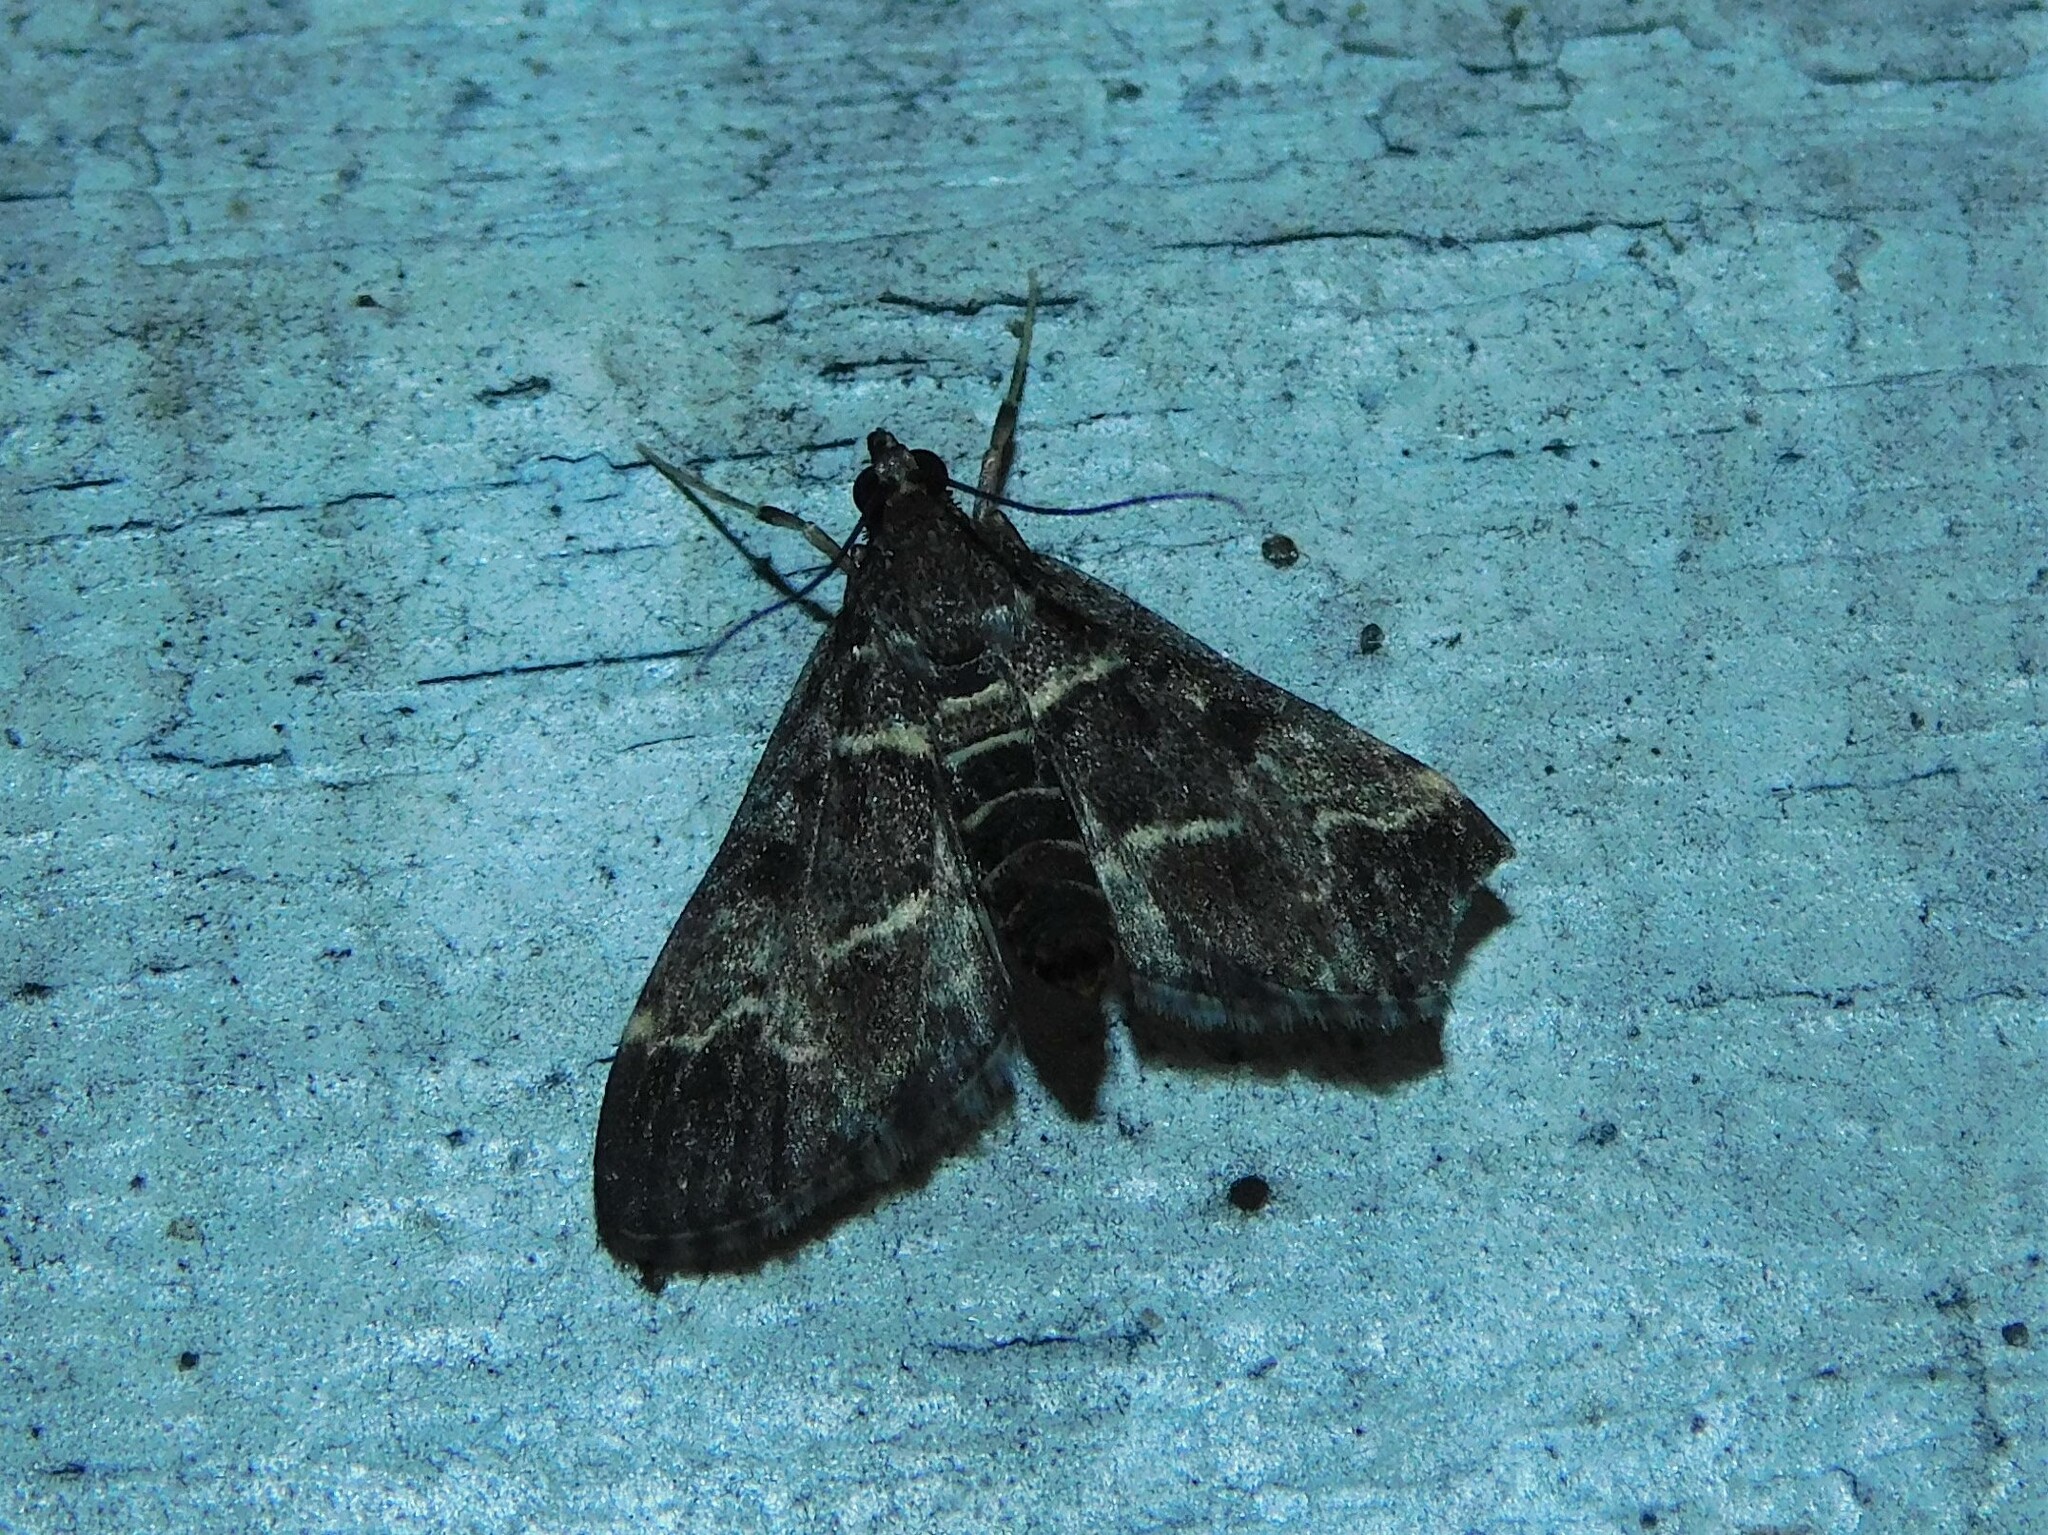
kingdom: Animalia
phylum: Arthropoda
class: Insecta
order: Lepidoptera
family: Crambidae
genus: Duponchelia
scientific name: Duponchelia fovealis
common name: Crambid moth
